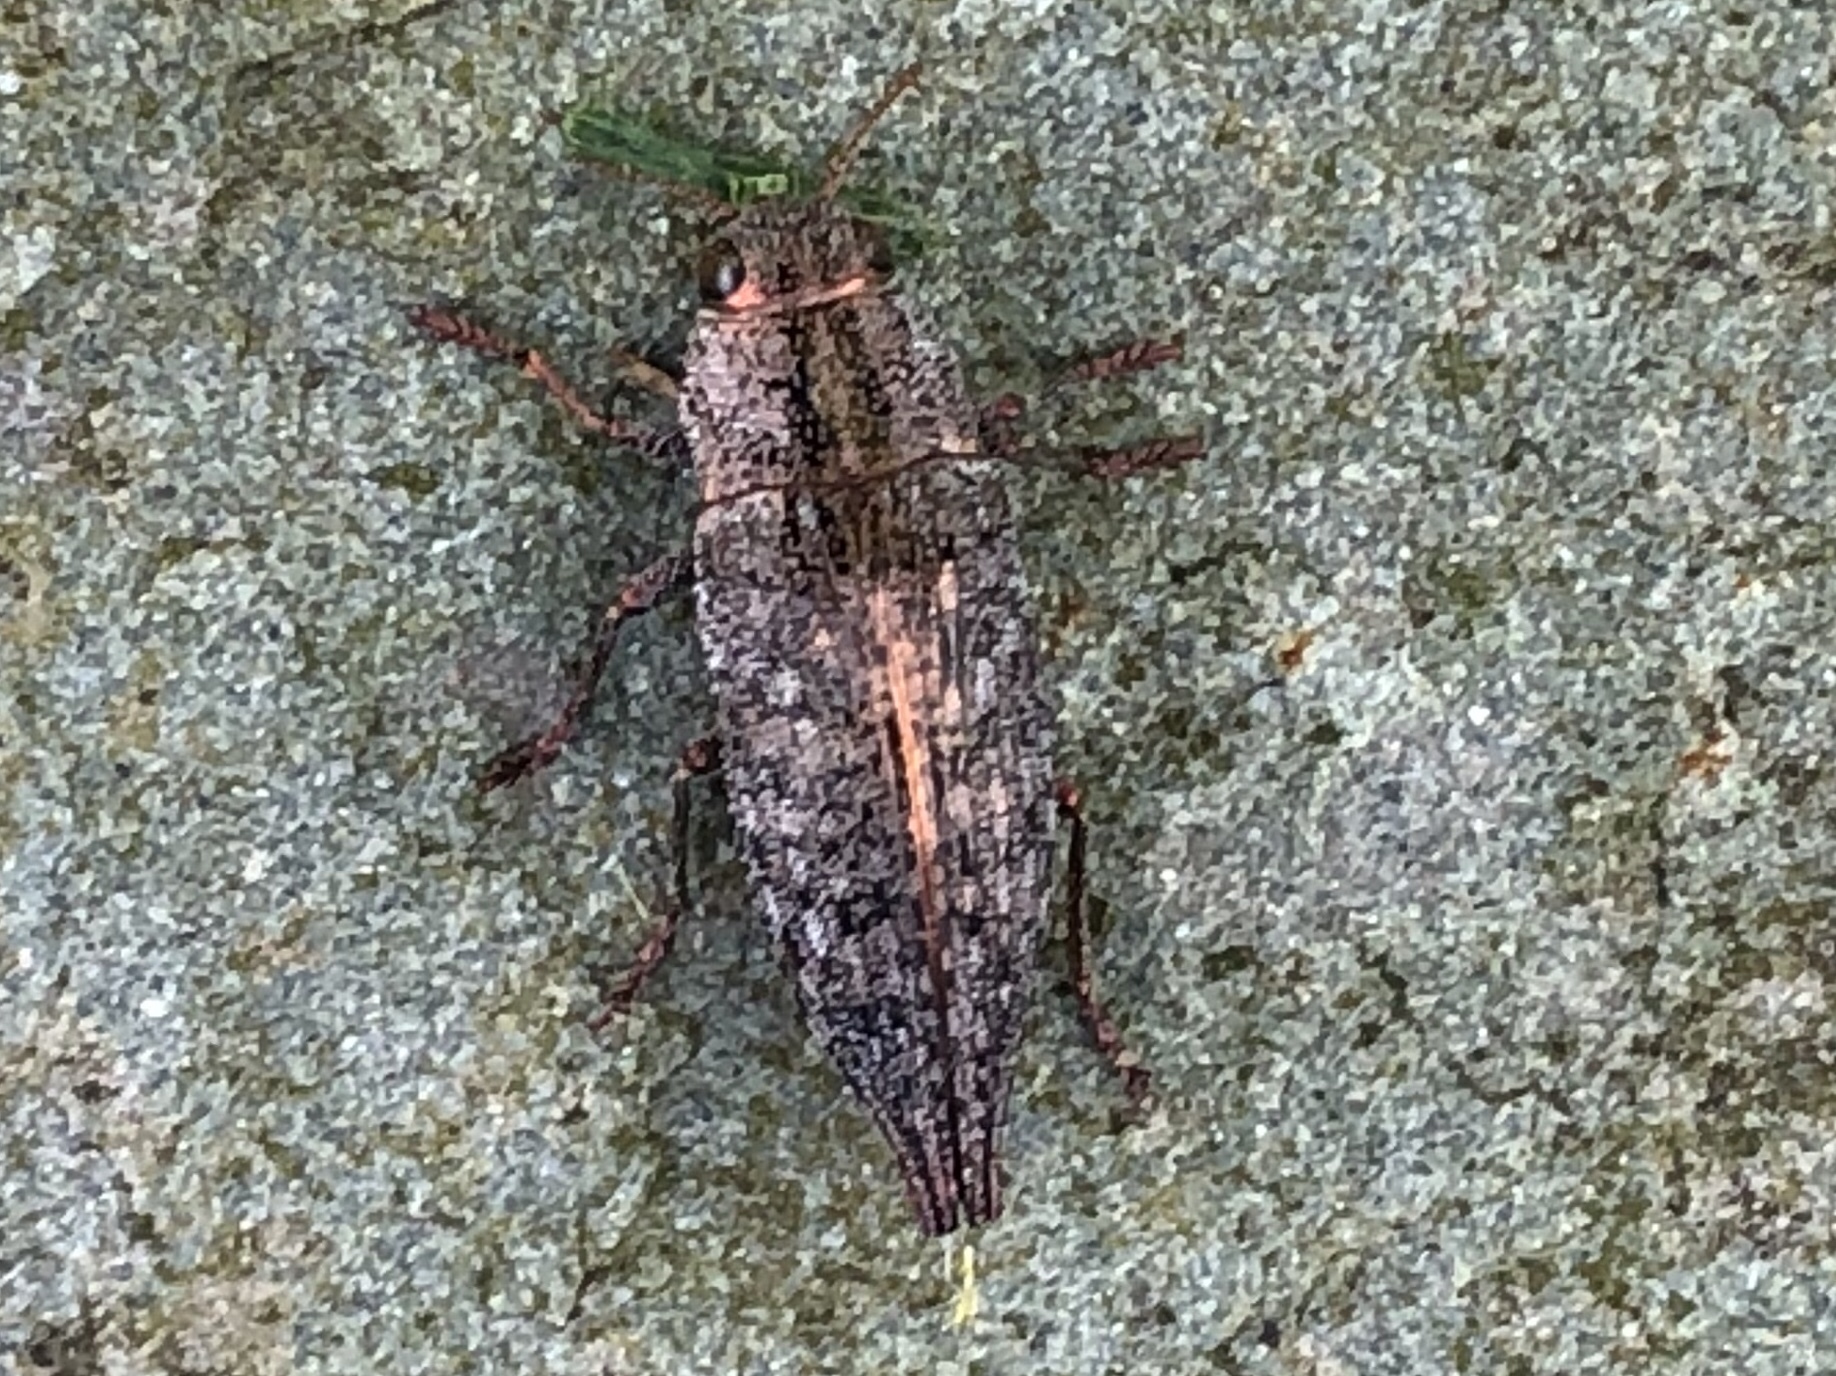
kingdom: Animalia
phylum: Arthropoda
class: Insecta
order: Coleoptera
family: Buprestidae
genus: Dicerca
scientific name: Dicerca divaricata
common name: Flat-headed hardwood borer
